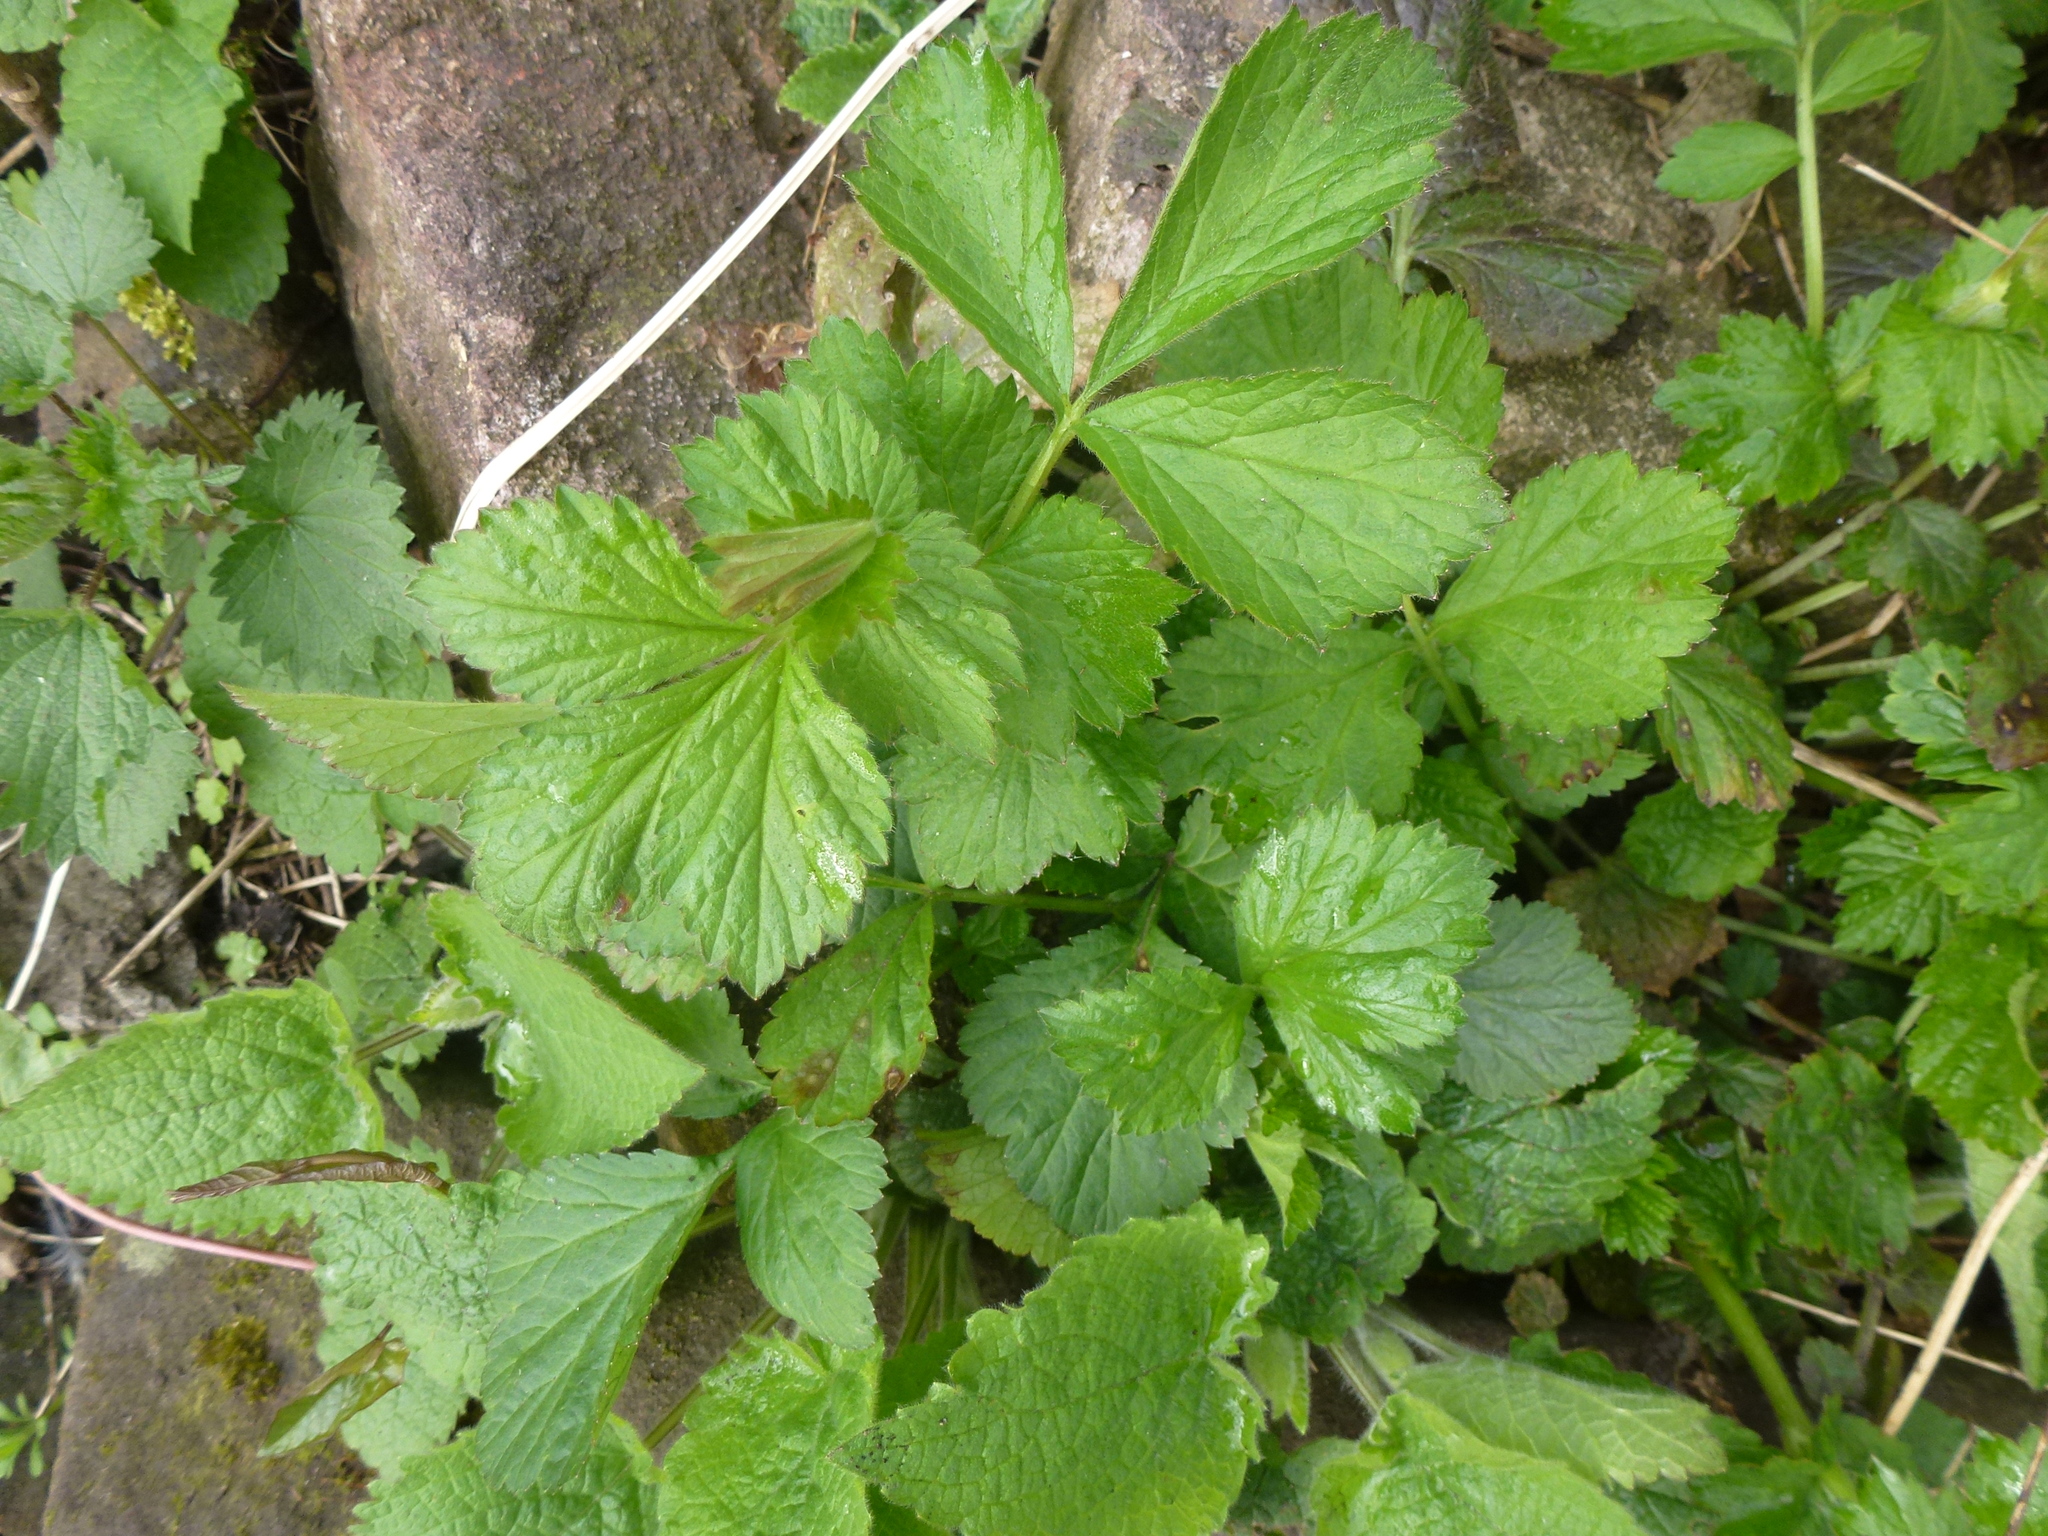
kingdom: Plantae
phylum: Tracheophyta
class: Magnoliopsida
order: Rosales
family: Rosaceae
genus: Geum
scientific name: Geum urbanum
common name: Wood avens
